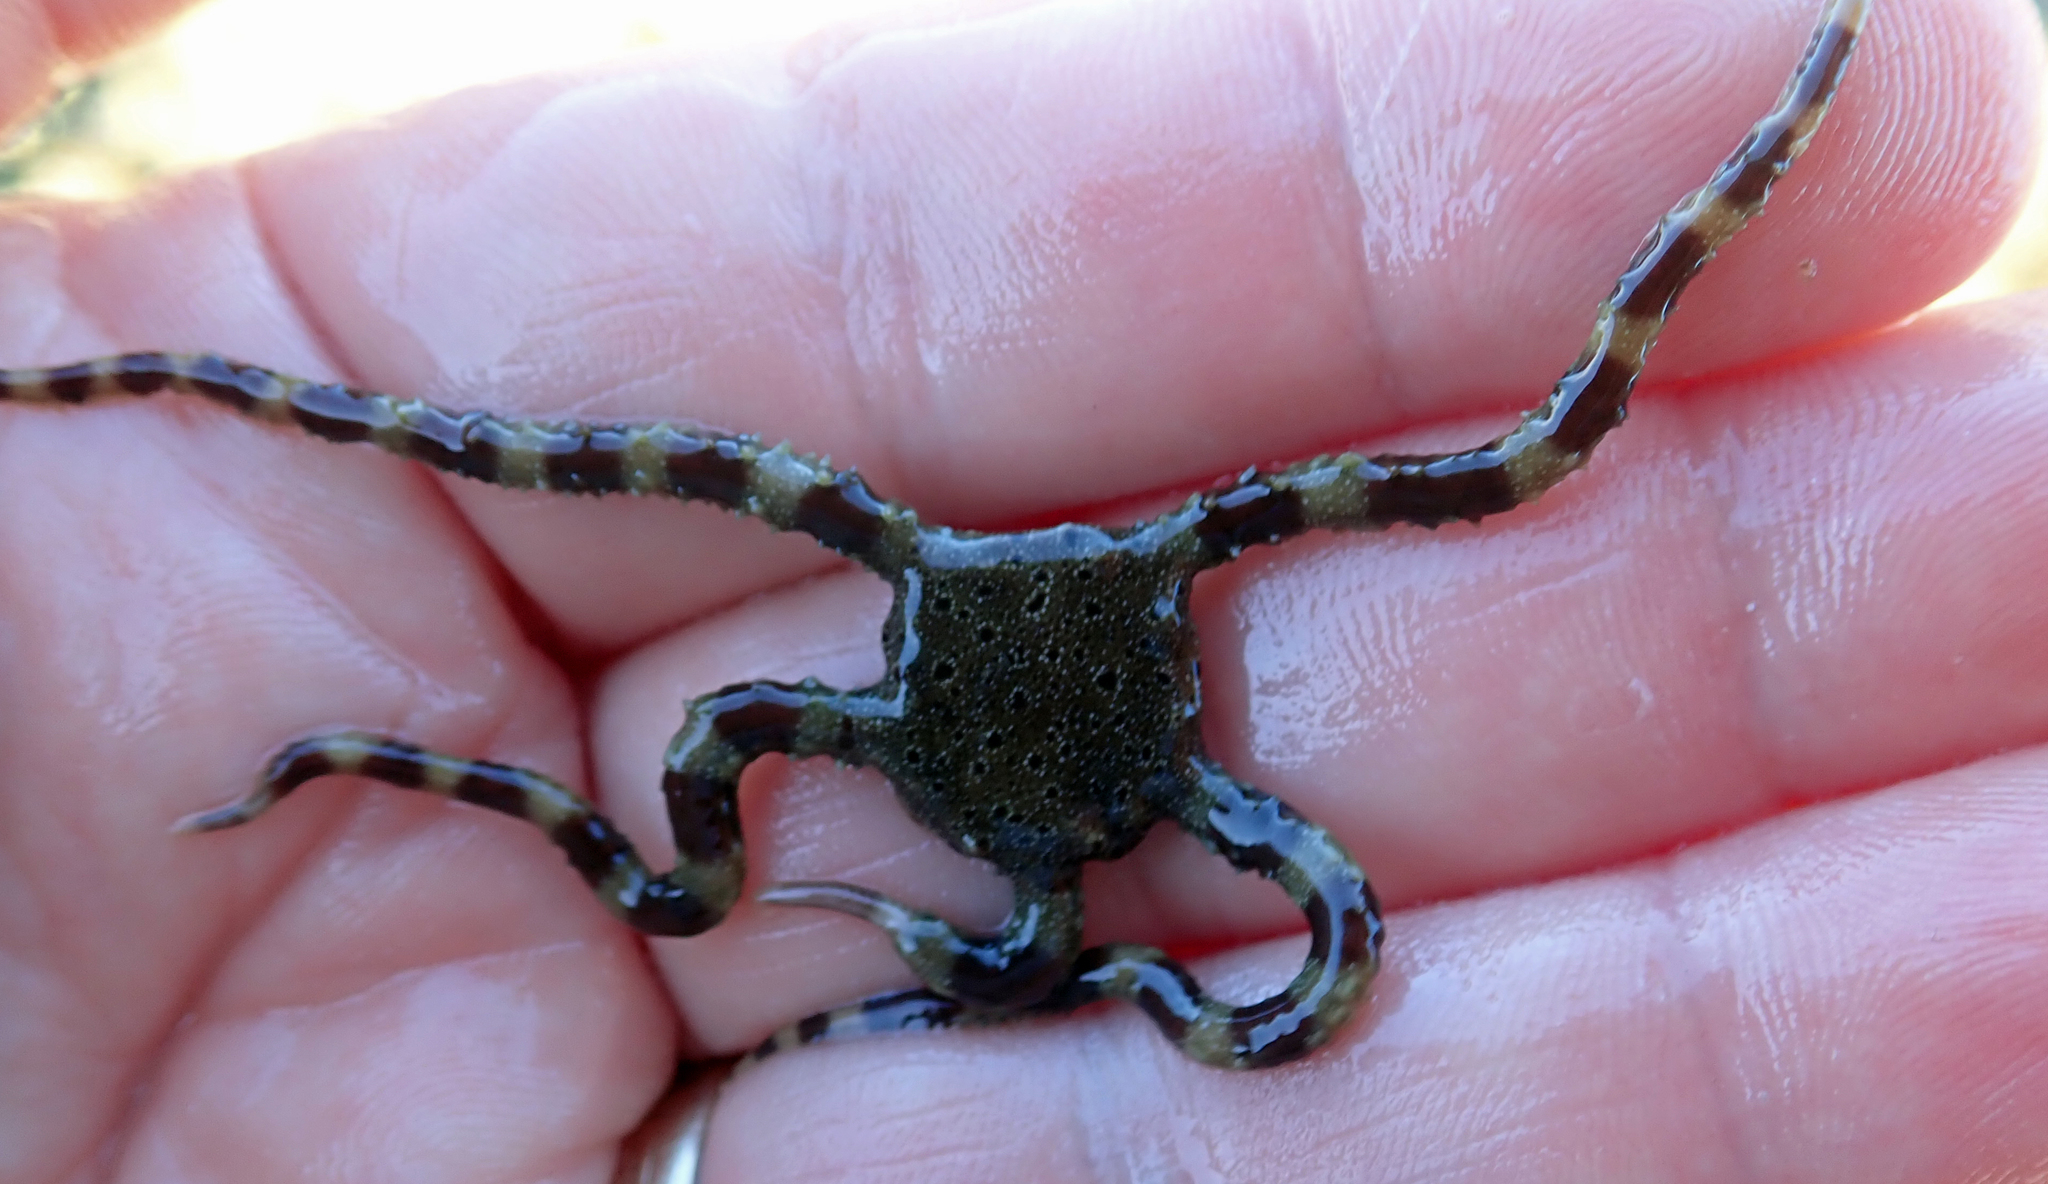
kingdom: Animalia
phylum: Echinodermata
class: Ophiuroidea
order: Ophiacanthida
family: Ophiomyxidae
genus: Ophiomyxa
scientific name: Ophiomyxa brevirima
